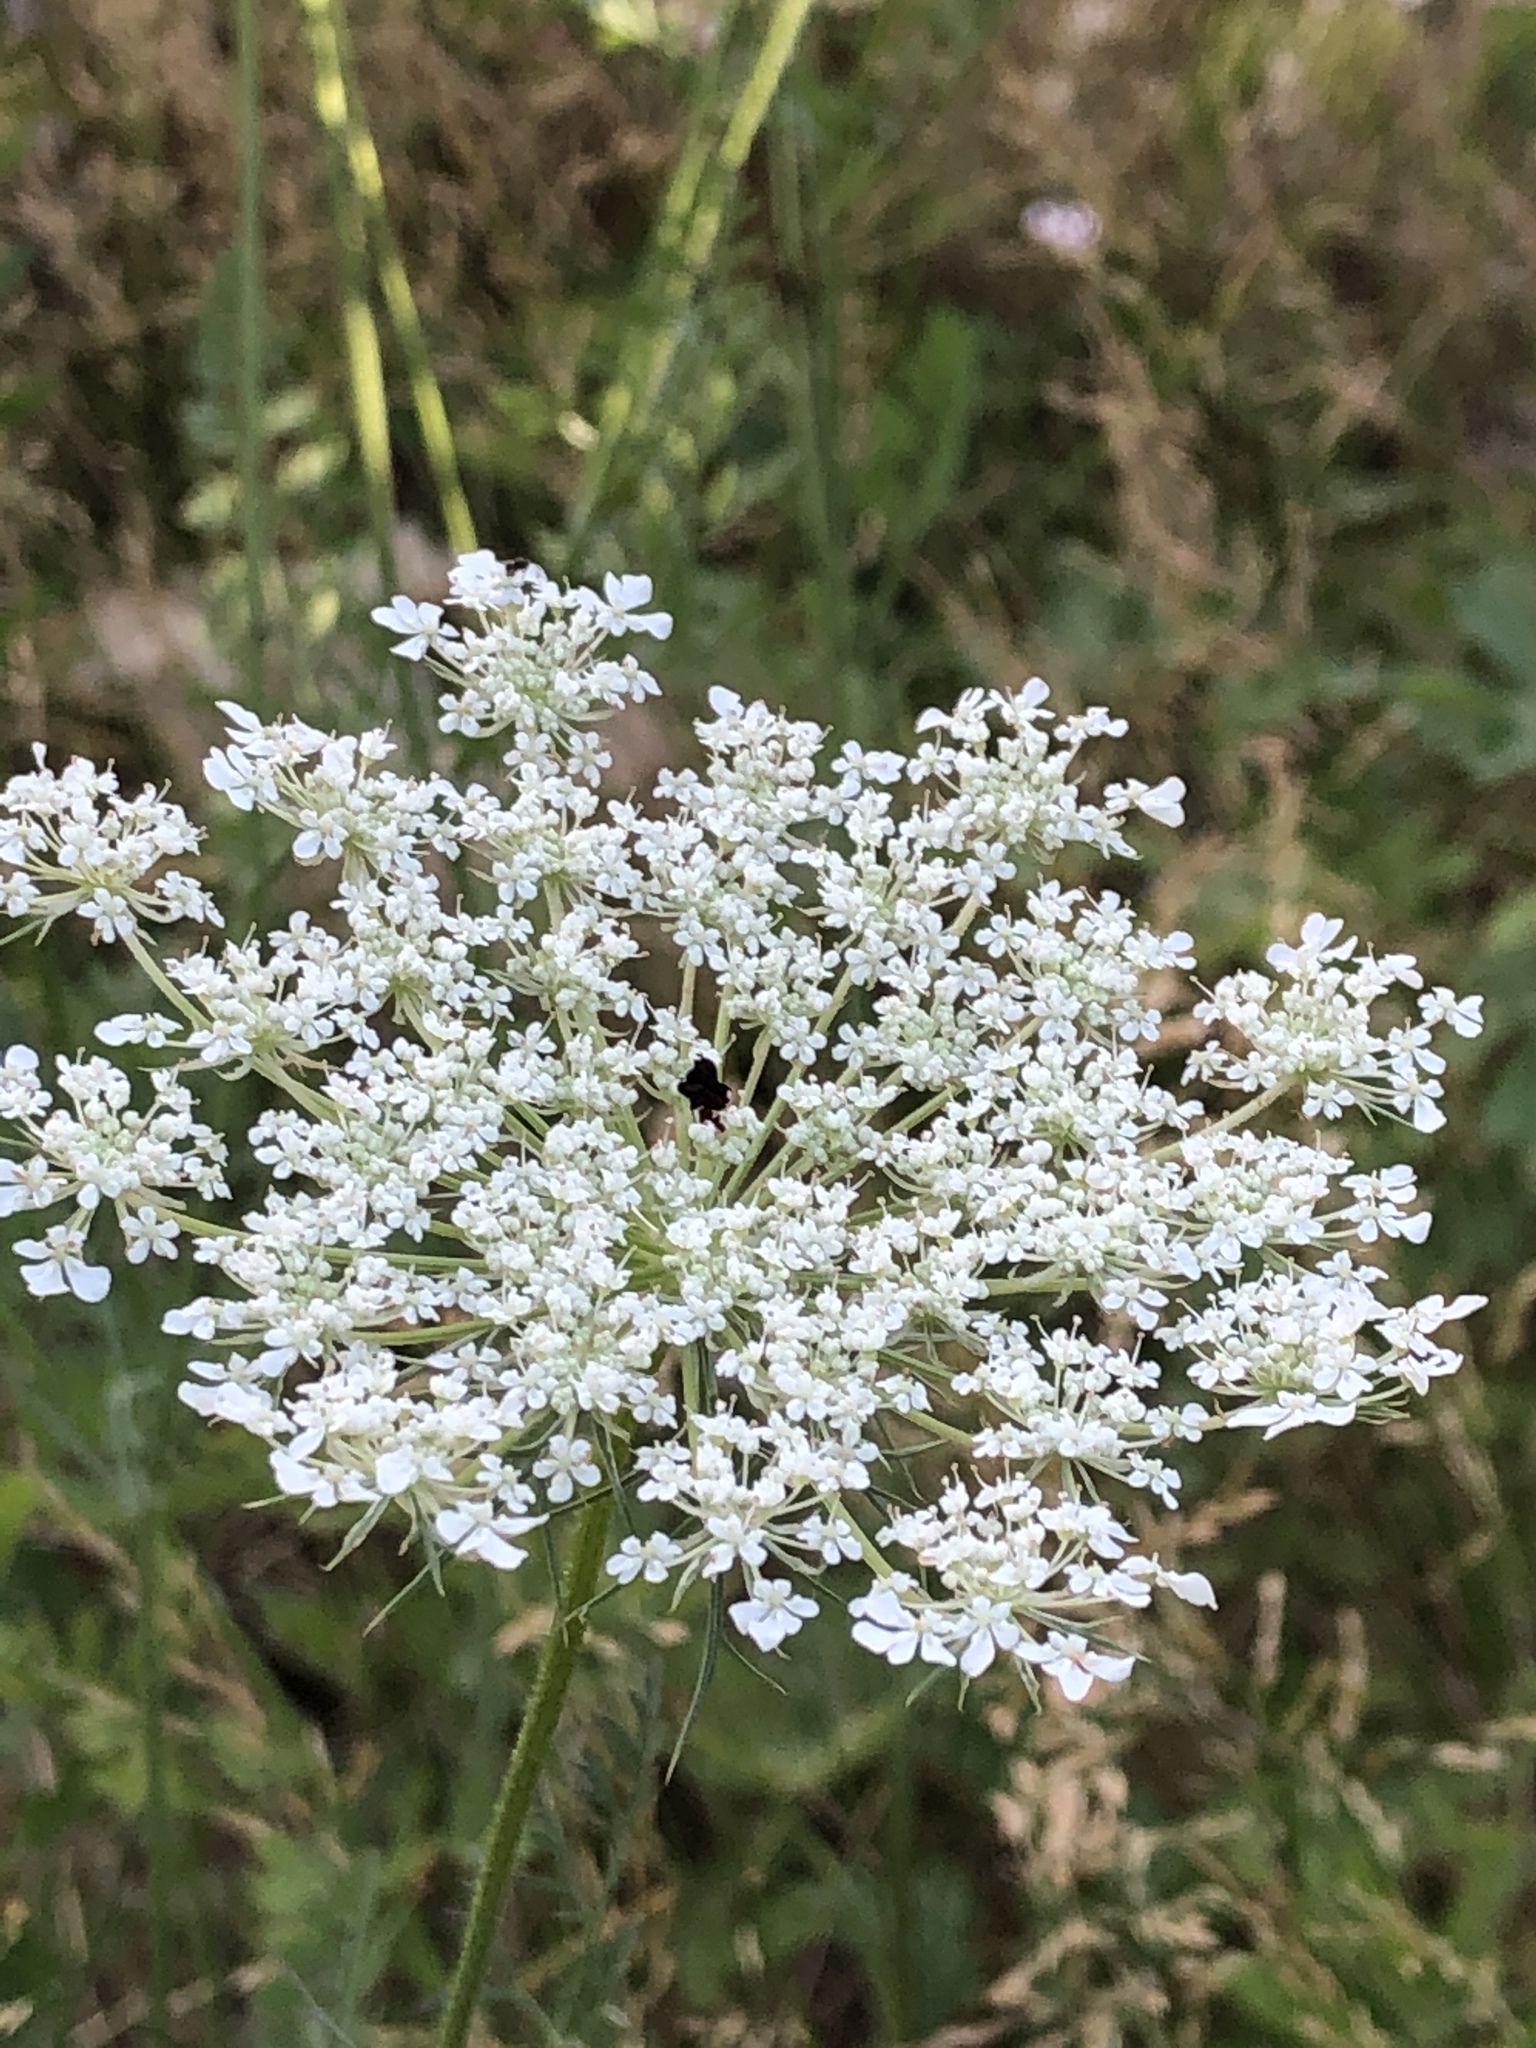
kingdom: Plantae
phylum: Tracheophyta
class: Magnoliopsida
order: Apiales
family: Apiaceae
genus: Daucus
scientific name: Daucus carota
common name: Wild carrot
